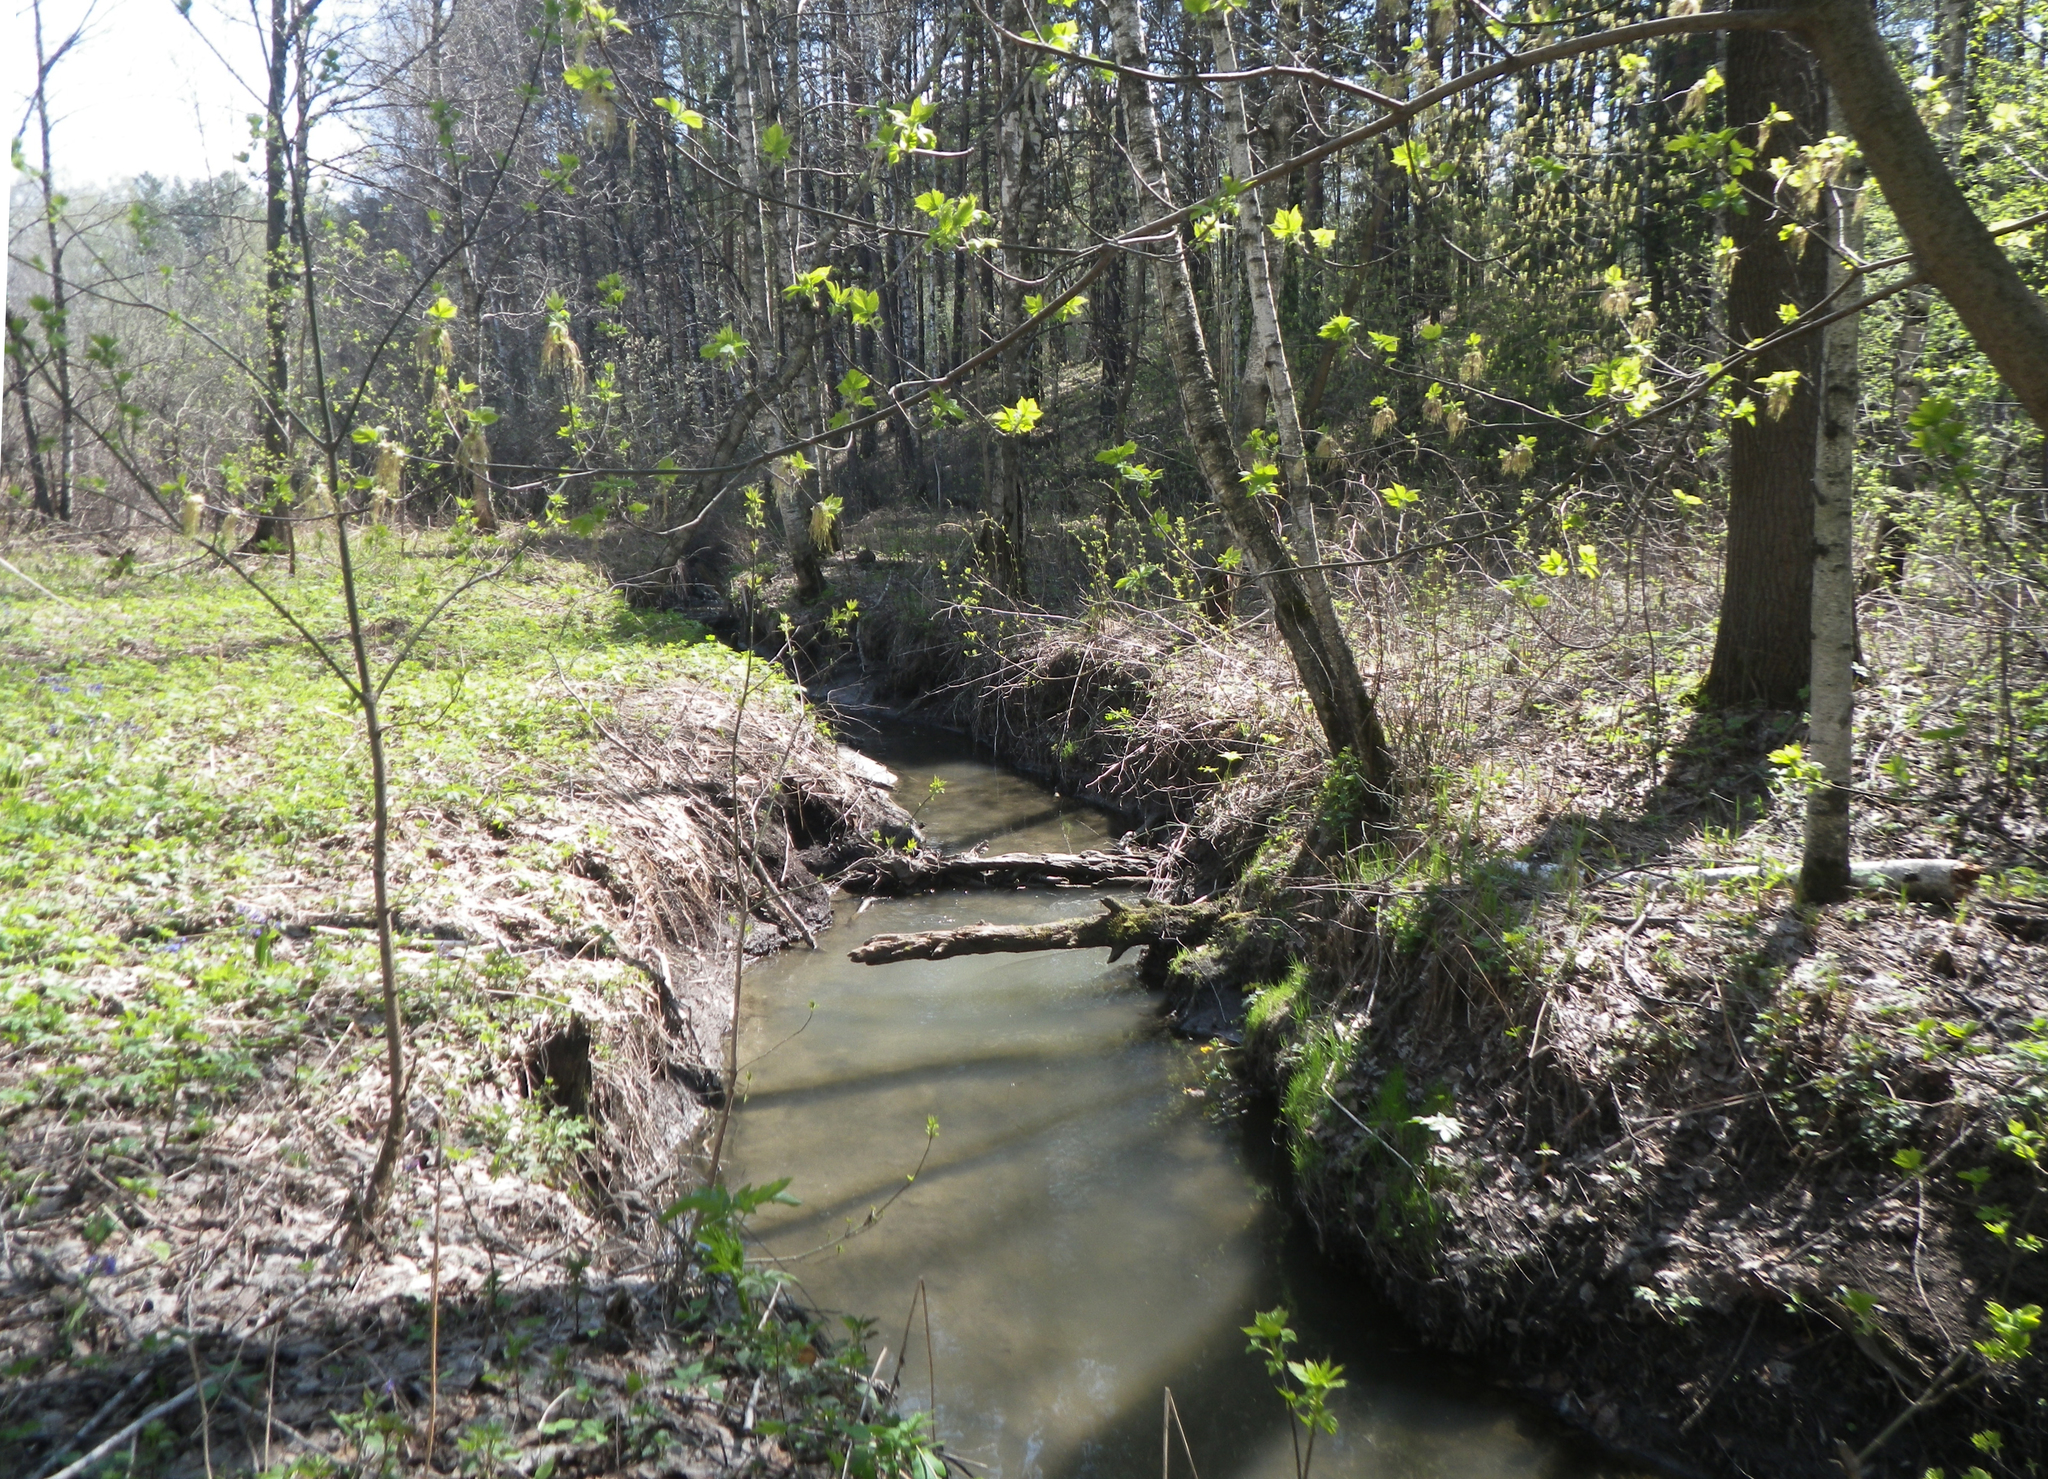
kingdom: Plantae
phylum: Tracheophyta
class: Magnoliopsida
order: Sapindales
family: Sapindaceae
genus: Acer
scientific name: Acer negundo
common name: Ashleaf maple
